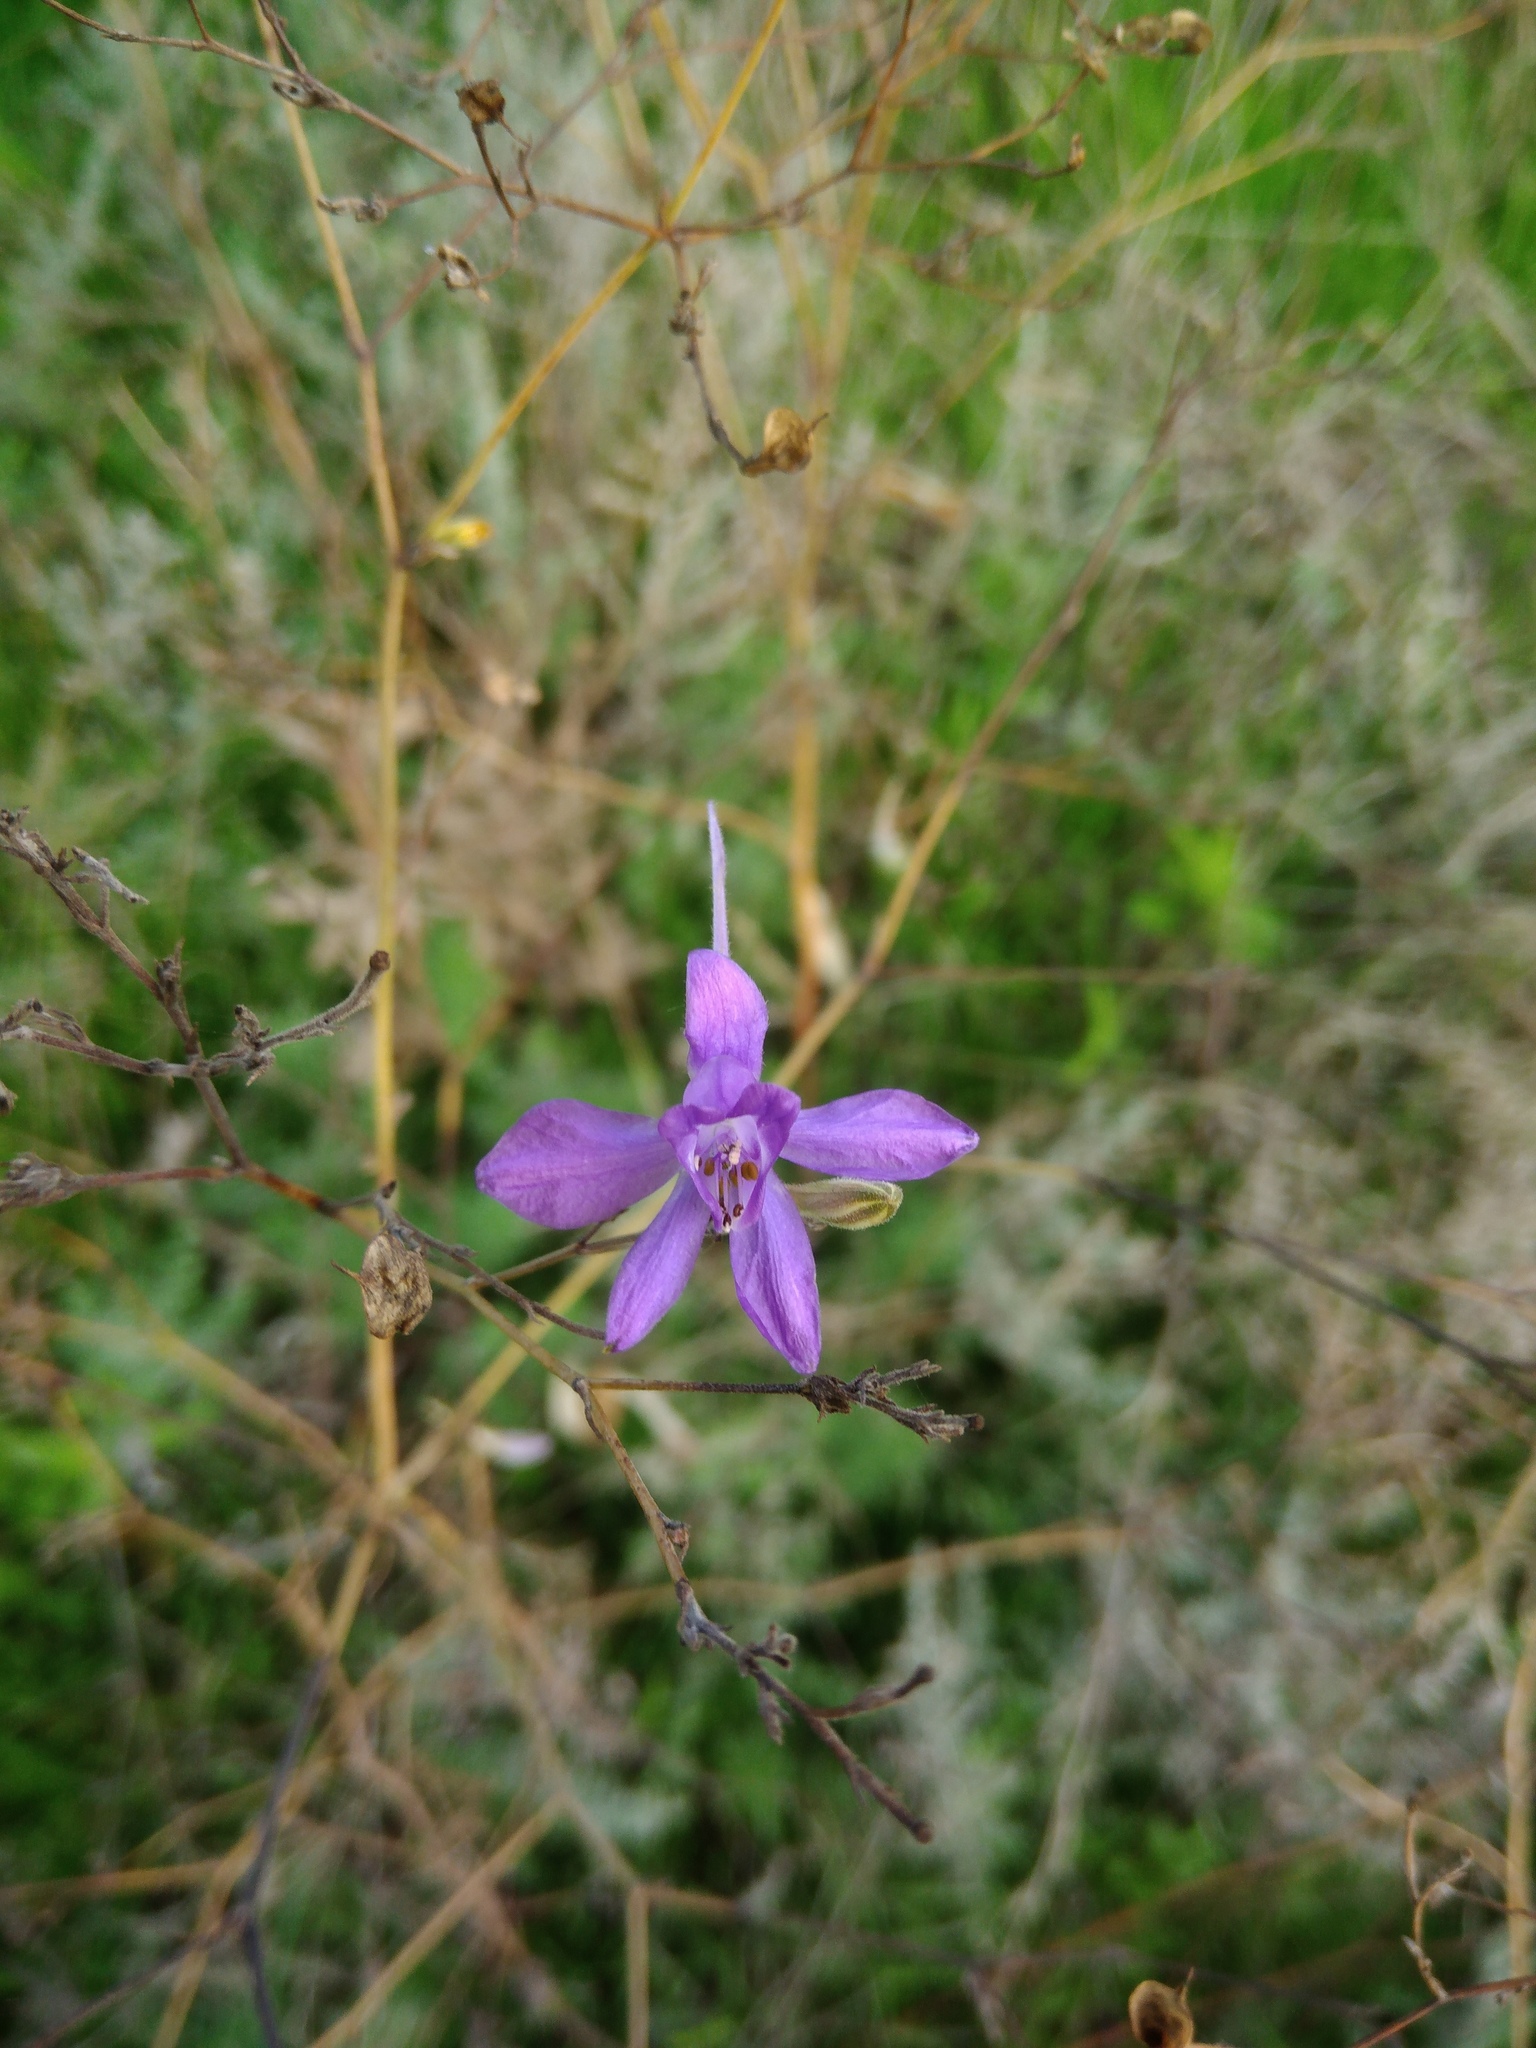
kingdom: Plantae
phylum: Tracheophyta
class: Magnoliopsida
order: Ranunculales
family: Ranunculaceae
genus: Delphinium
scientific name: Delphinium consolida
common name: Branching larkspur
